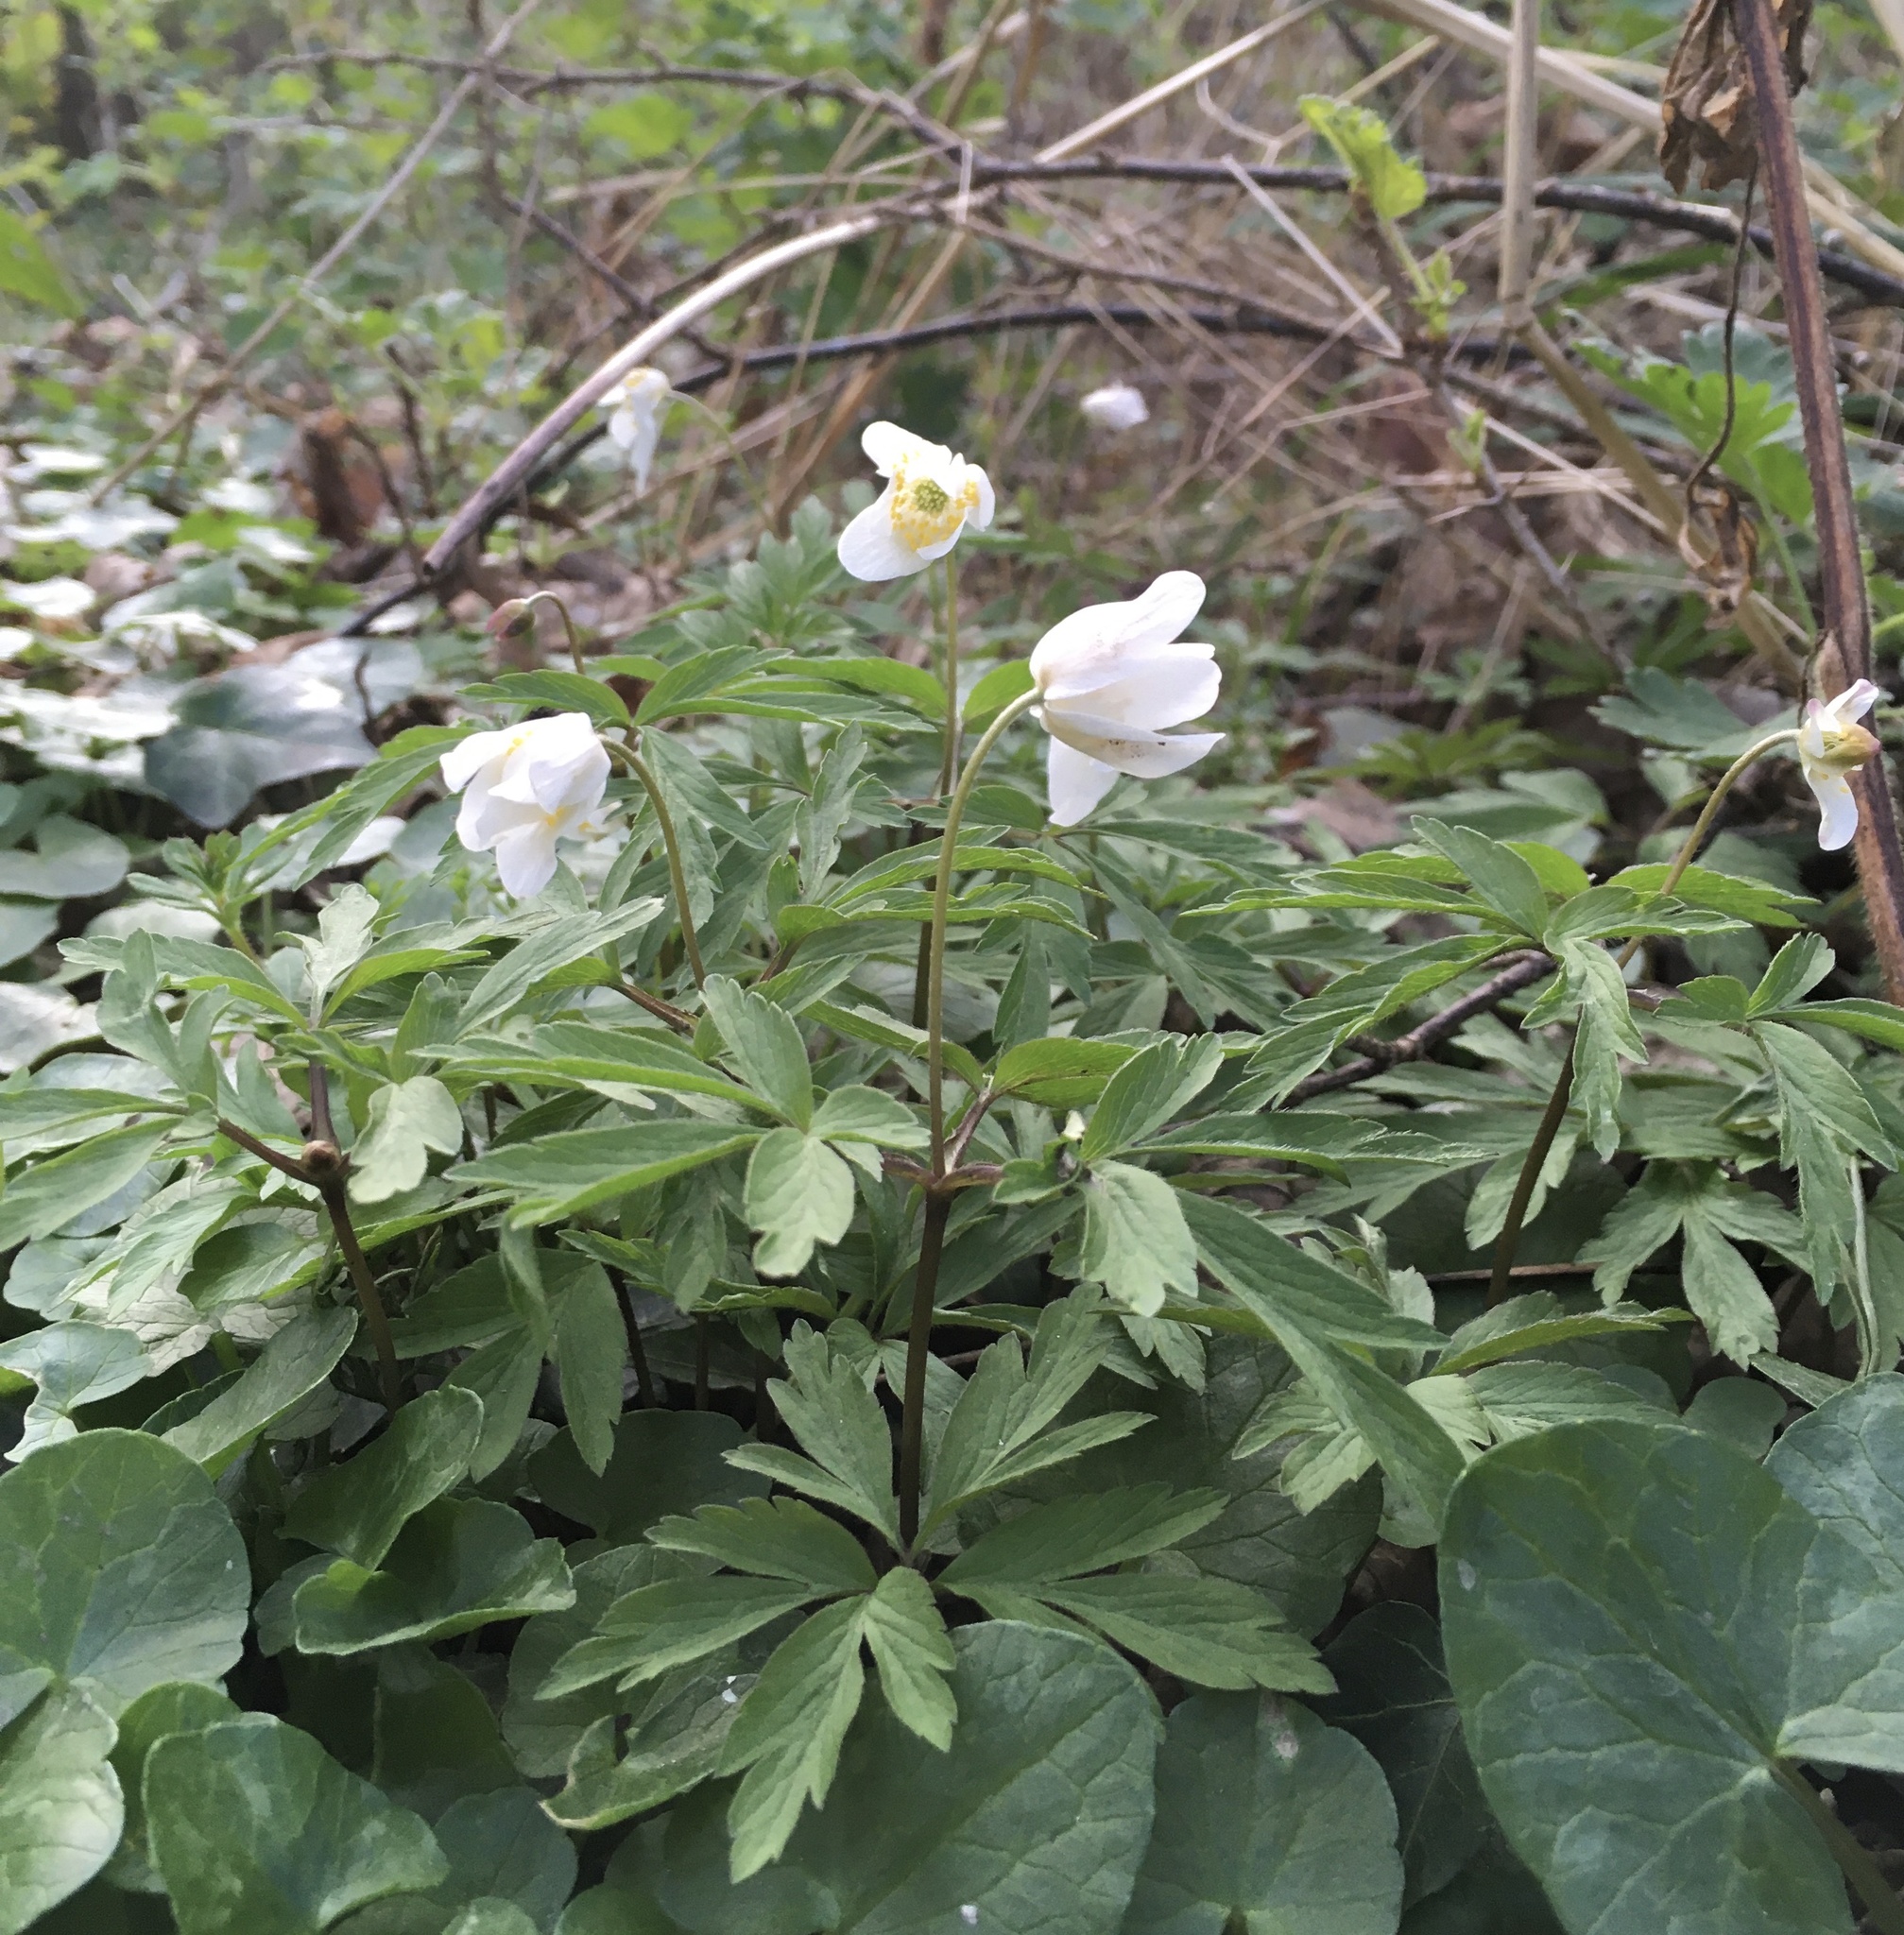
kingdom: Plantae
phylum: Tracheophyta
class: Magnoliopsida
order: Ranunculales
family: Ranunculaceae
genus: Anemone
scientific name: Anemone nemorosa
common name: Wood anemone
